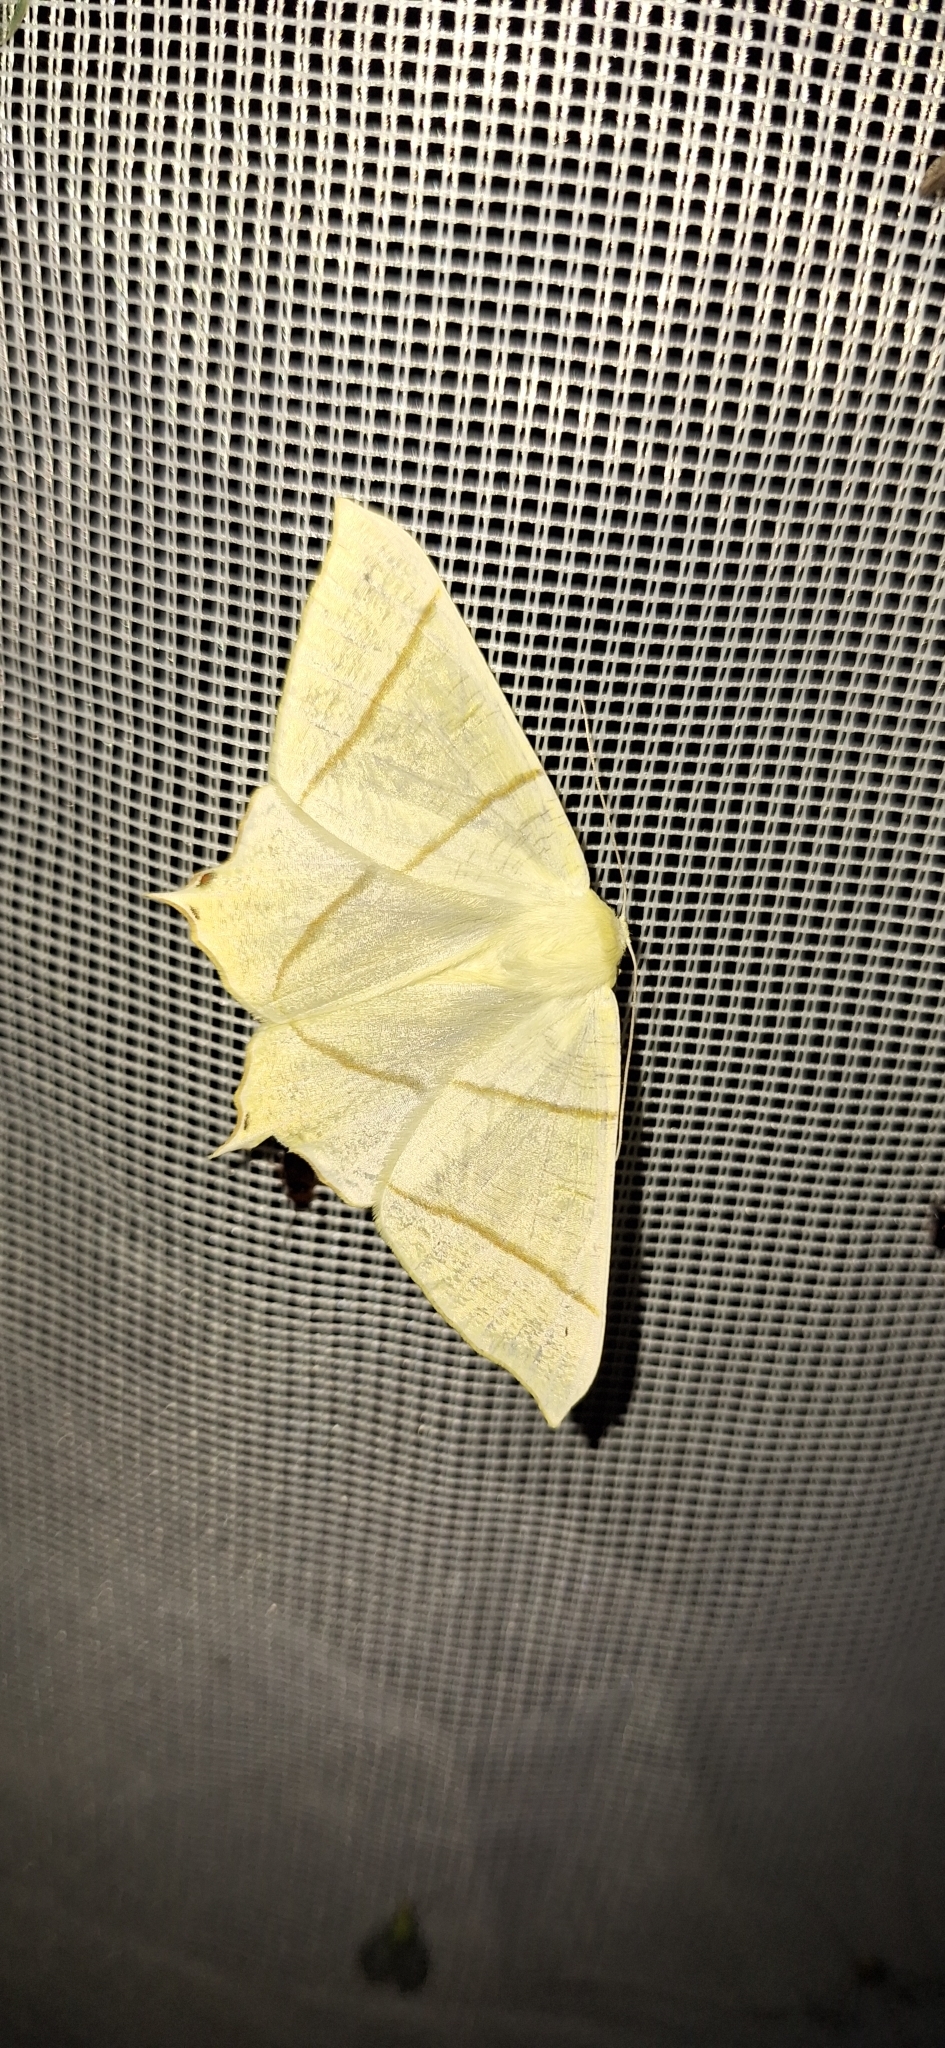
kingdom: Animalia
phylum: Arthropoda
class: Insecta
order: Lepidoptera
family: Geometridae
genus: Ourapteryx
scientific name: Ourapteryx sambucaria
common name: Swallow-tailed moth
